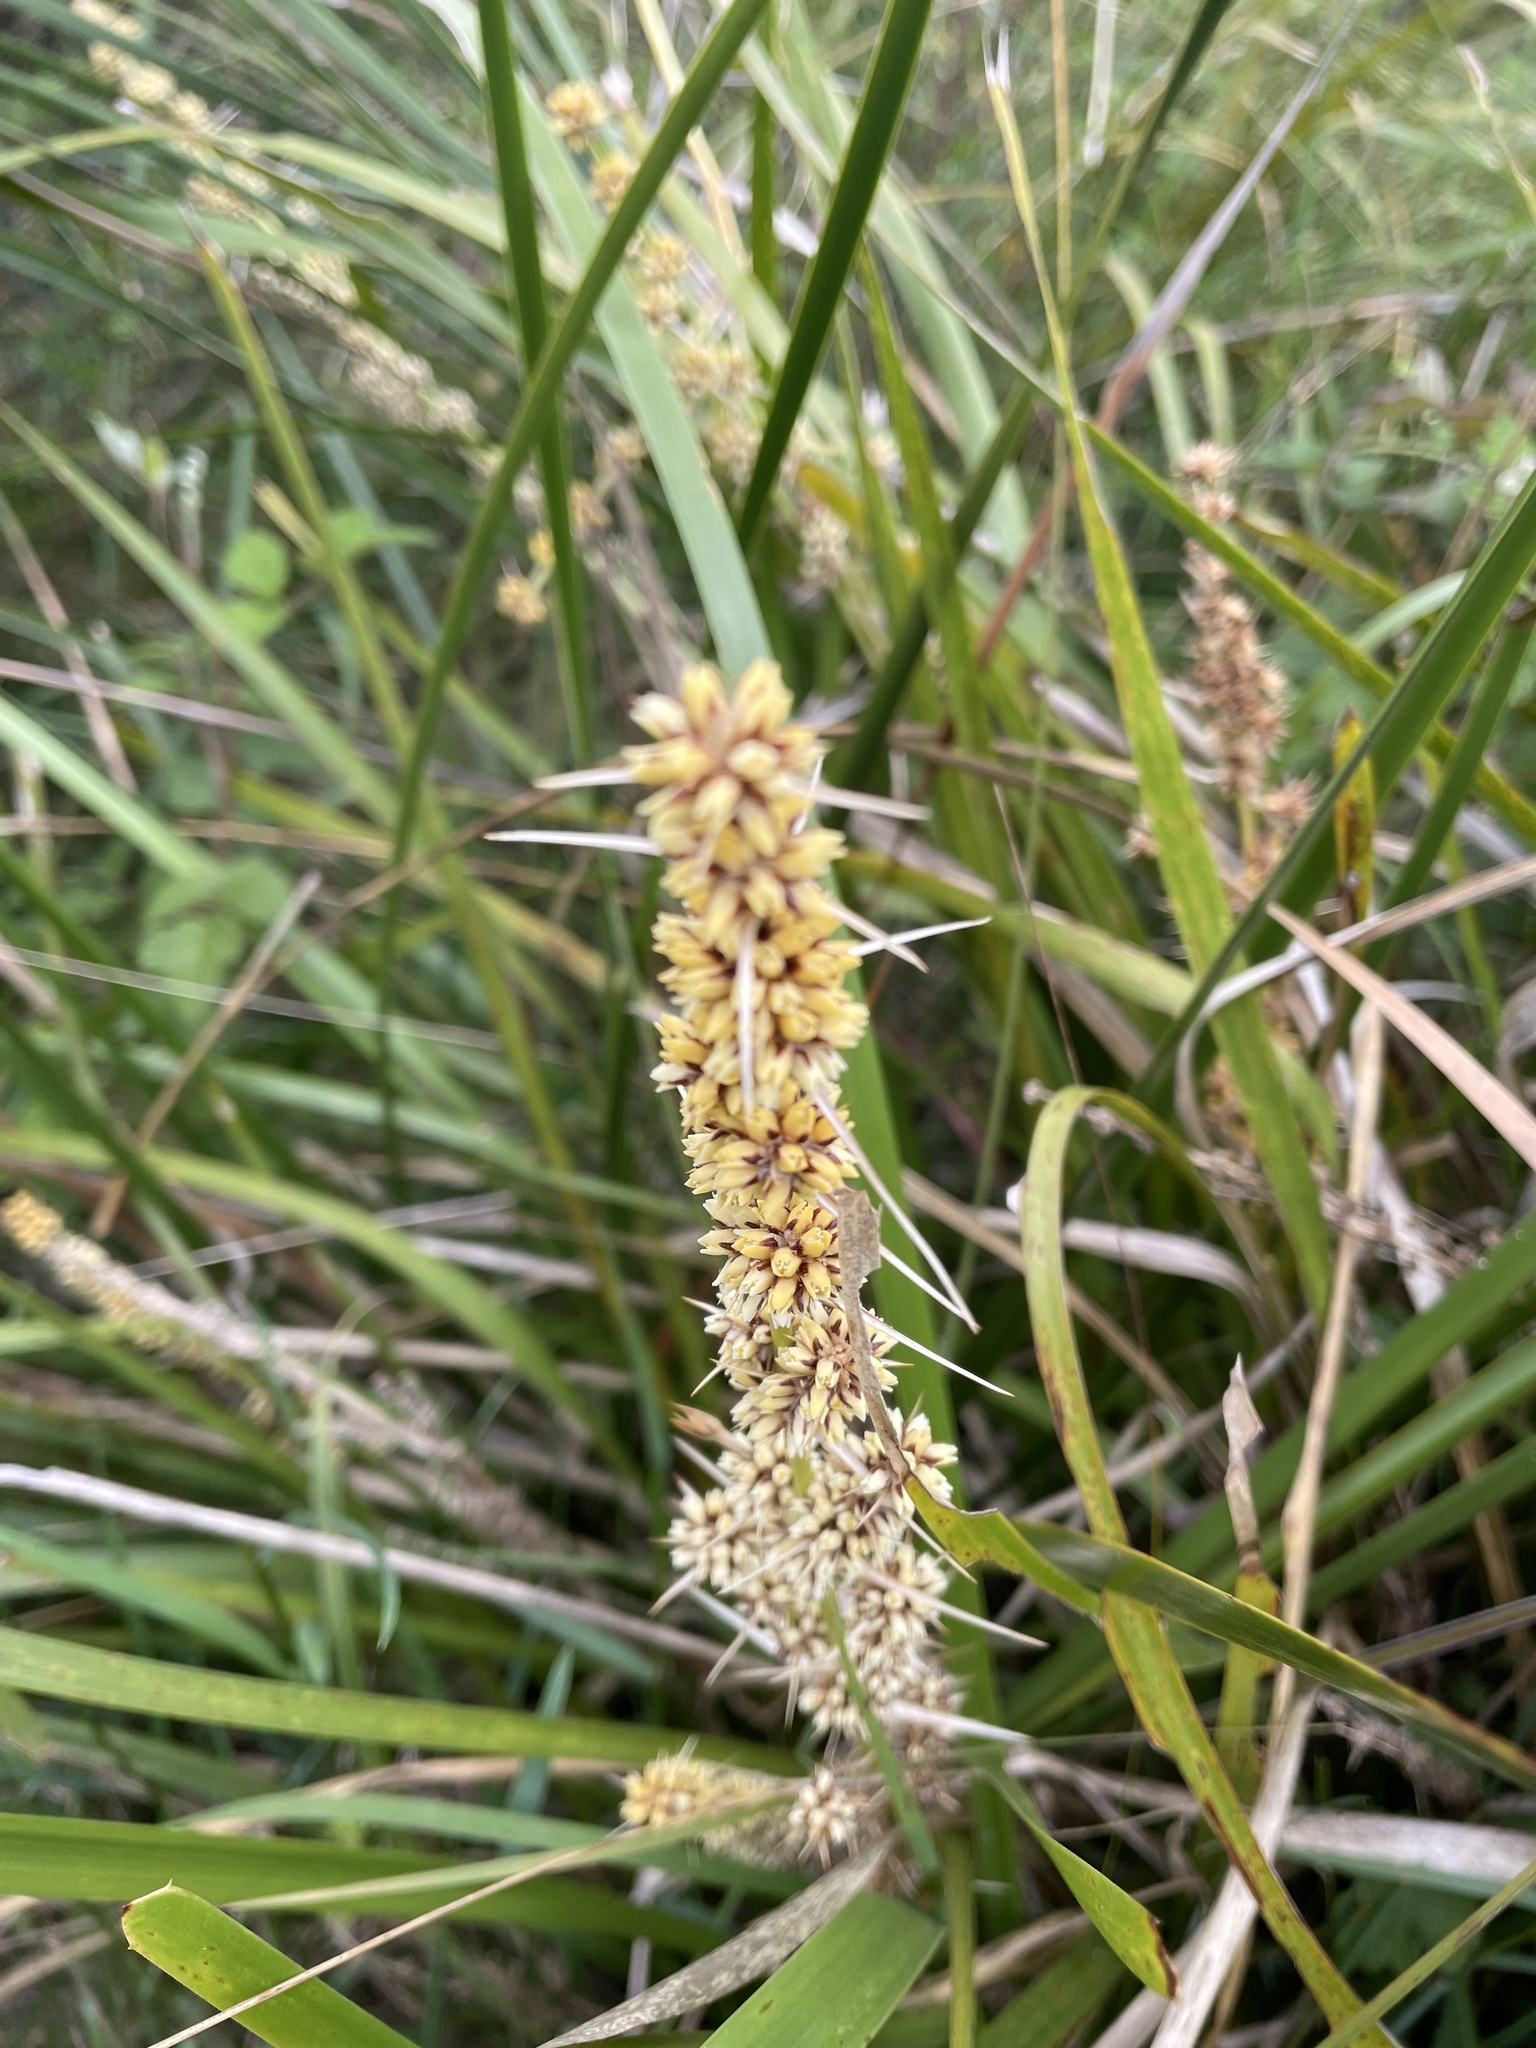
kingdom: Plantae
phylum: Tracheophyta
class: Liliopsida
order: Asparagales
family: Asparagaceae
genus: Lomandra
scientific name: Lomandra longifolia
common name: Longleaf mat-rush
